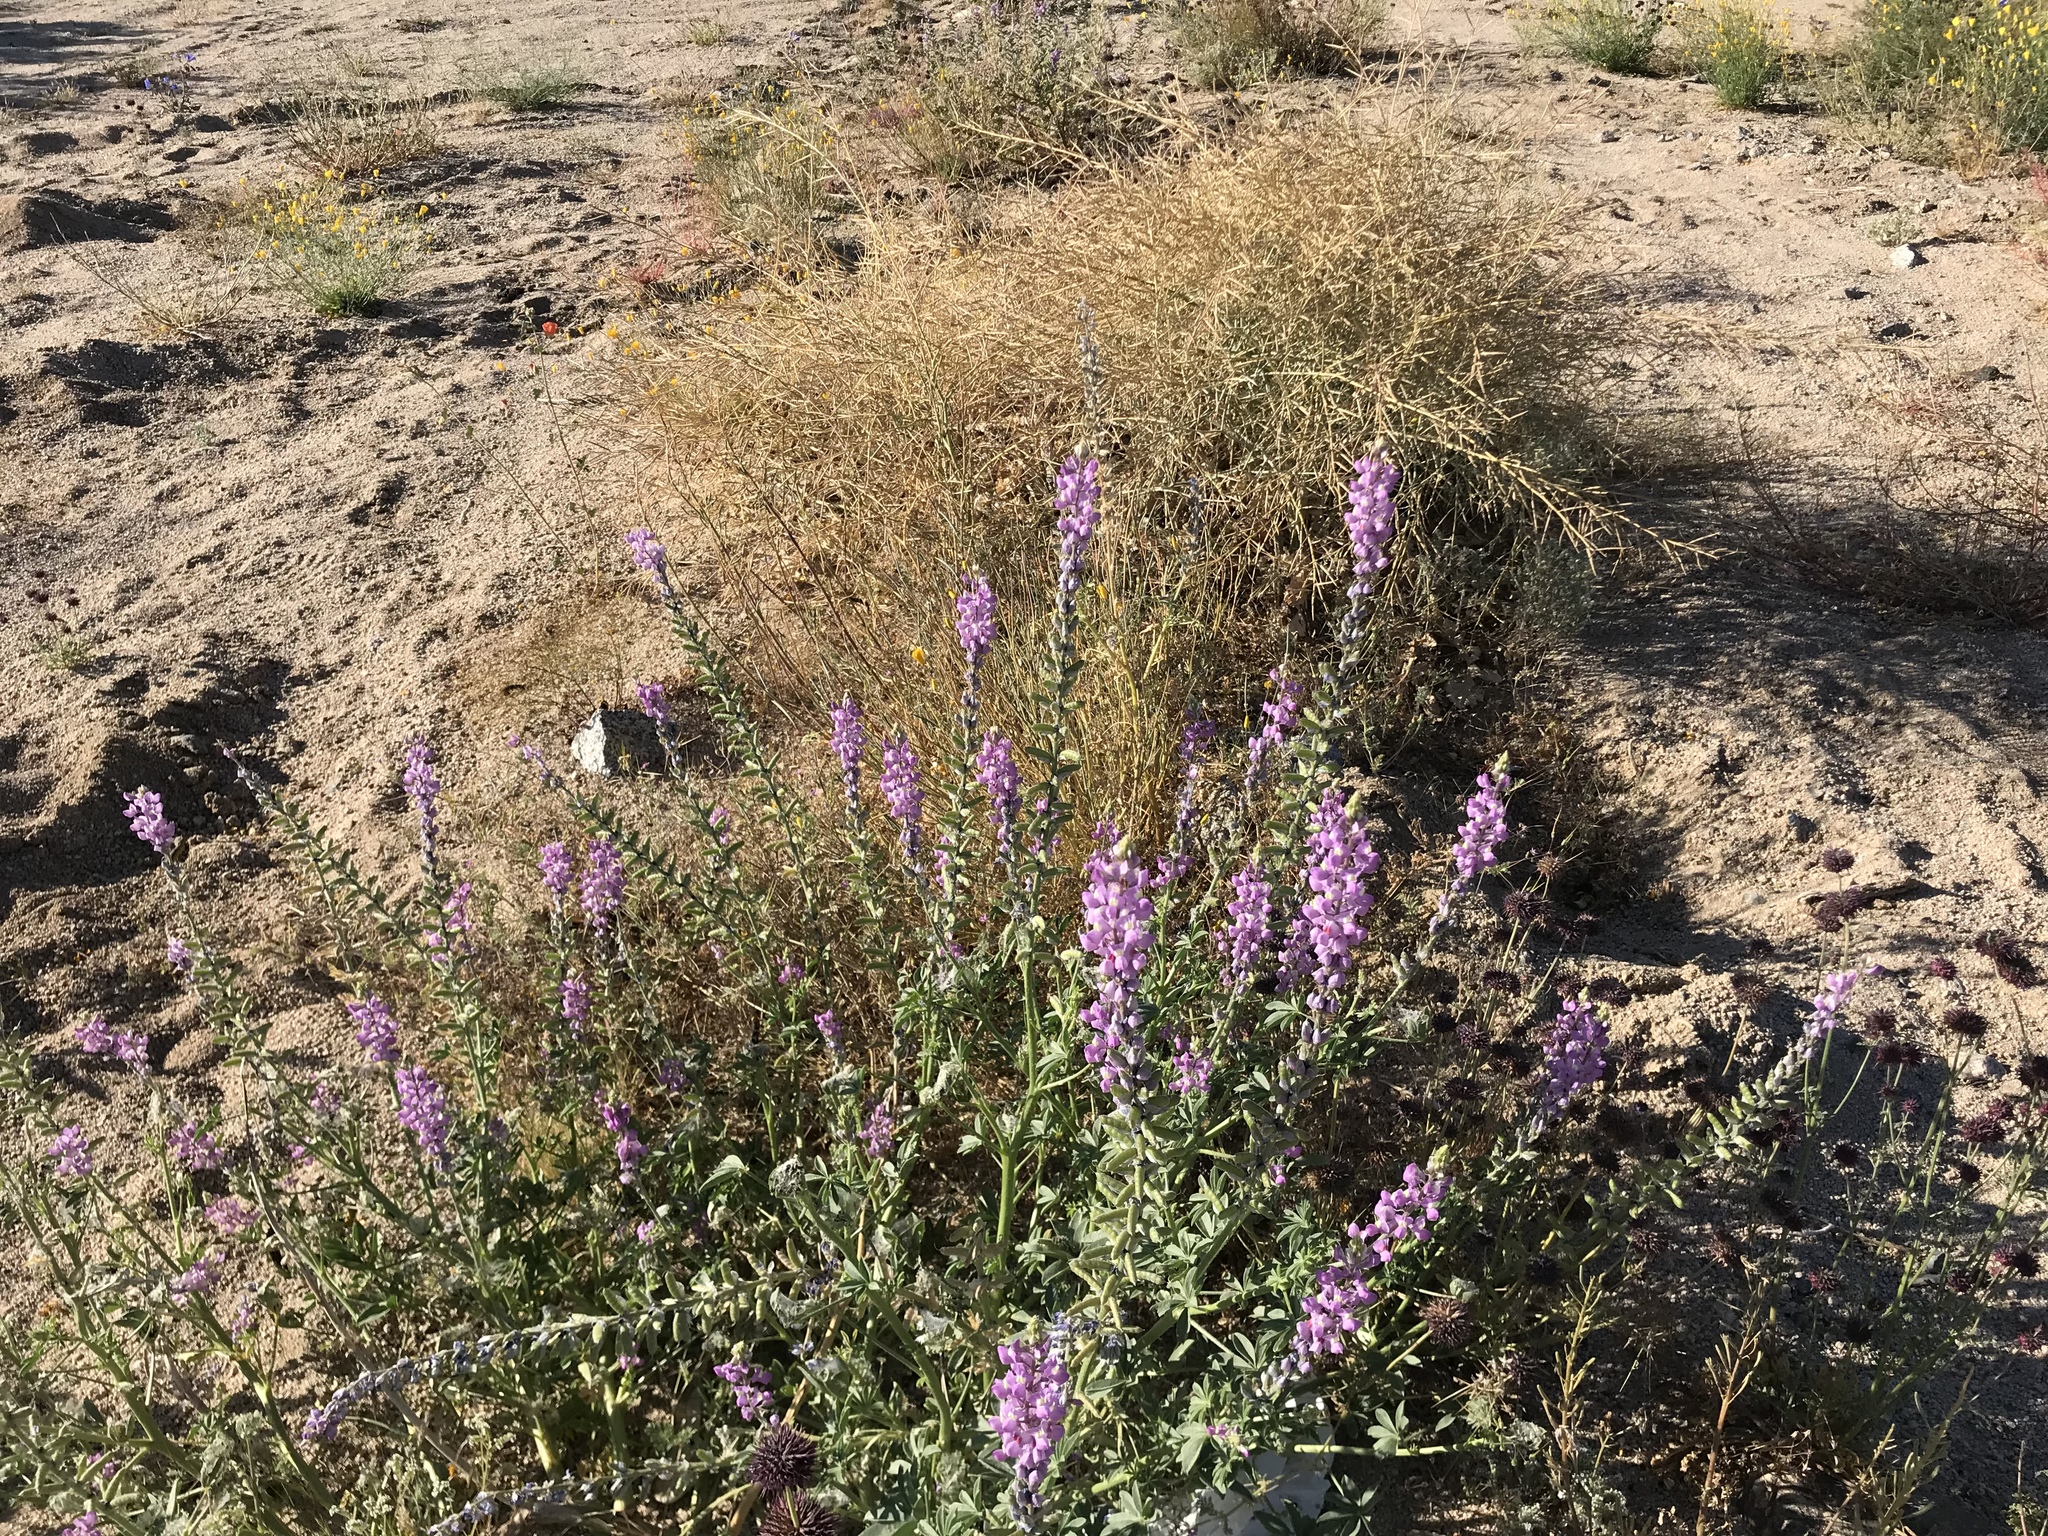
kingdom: Plantae
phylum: Tracheophyta
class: Magnoliopsida
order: Fabales
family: Fabaceae
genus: Lupinus
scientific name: Lupinus arizonicus
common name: Arizona lupine
